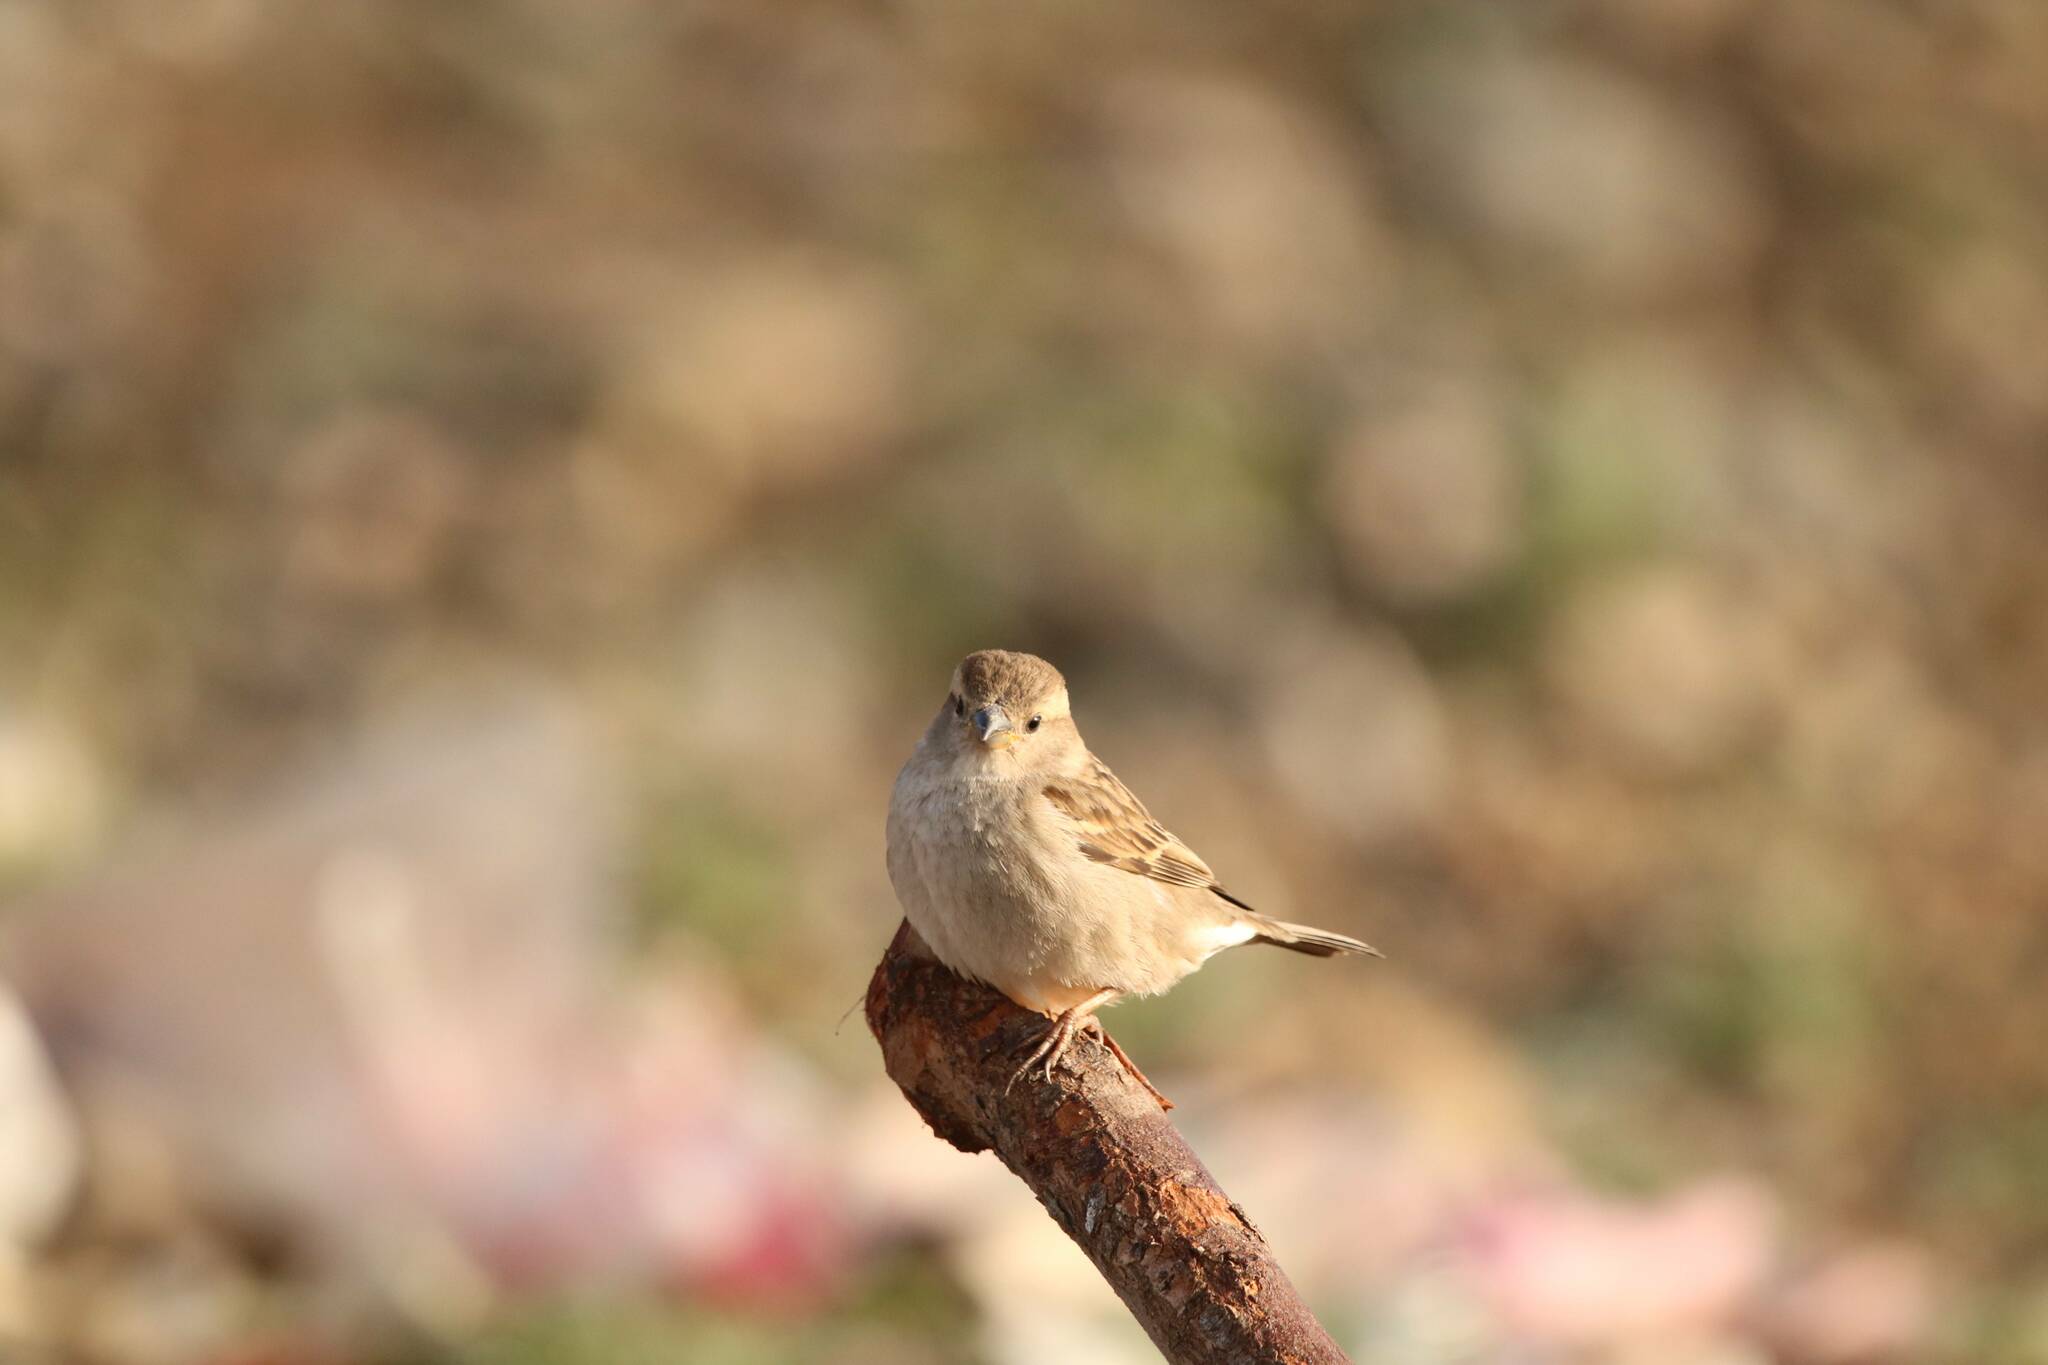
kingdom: Animalia
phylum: Chordata
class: Aves
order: Passeriformes
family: Passeridae
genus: Passer
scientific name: Passer domesticus
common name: House sparrow
